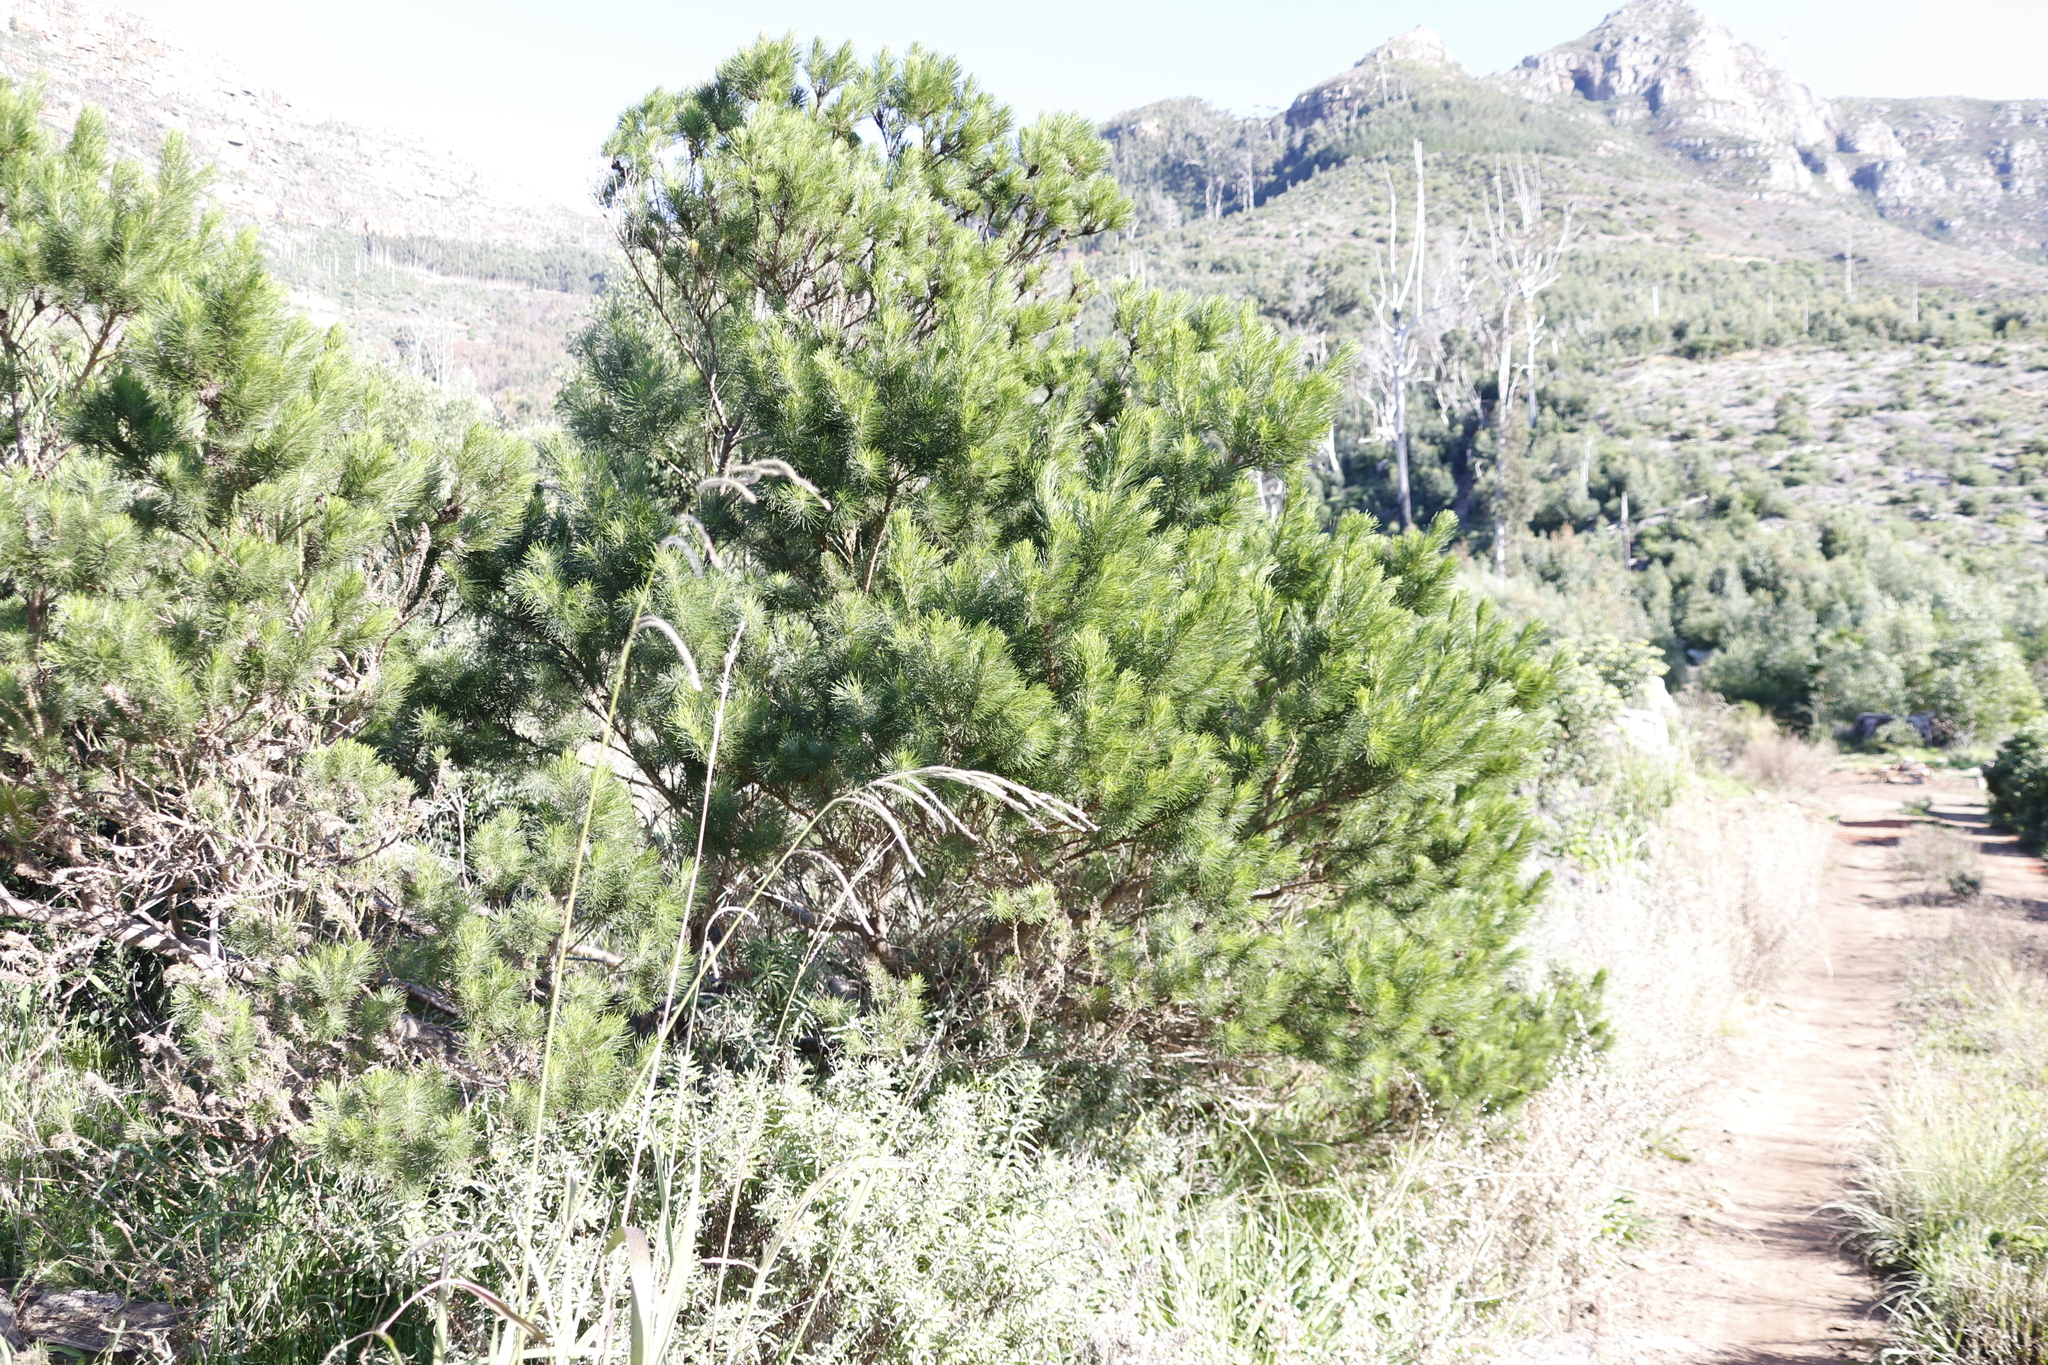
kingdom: Plantae
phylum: Tracheophyta
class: Magnoliopsida
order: Fabales
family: Fabaceae
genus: Psoralea
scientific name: Psoralea pinnata
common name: African scurfpea
